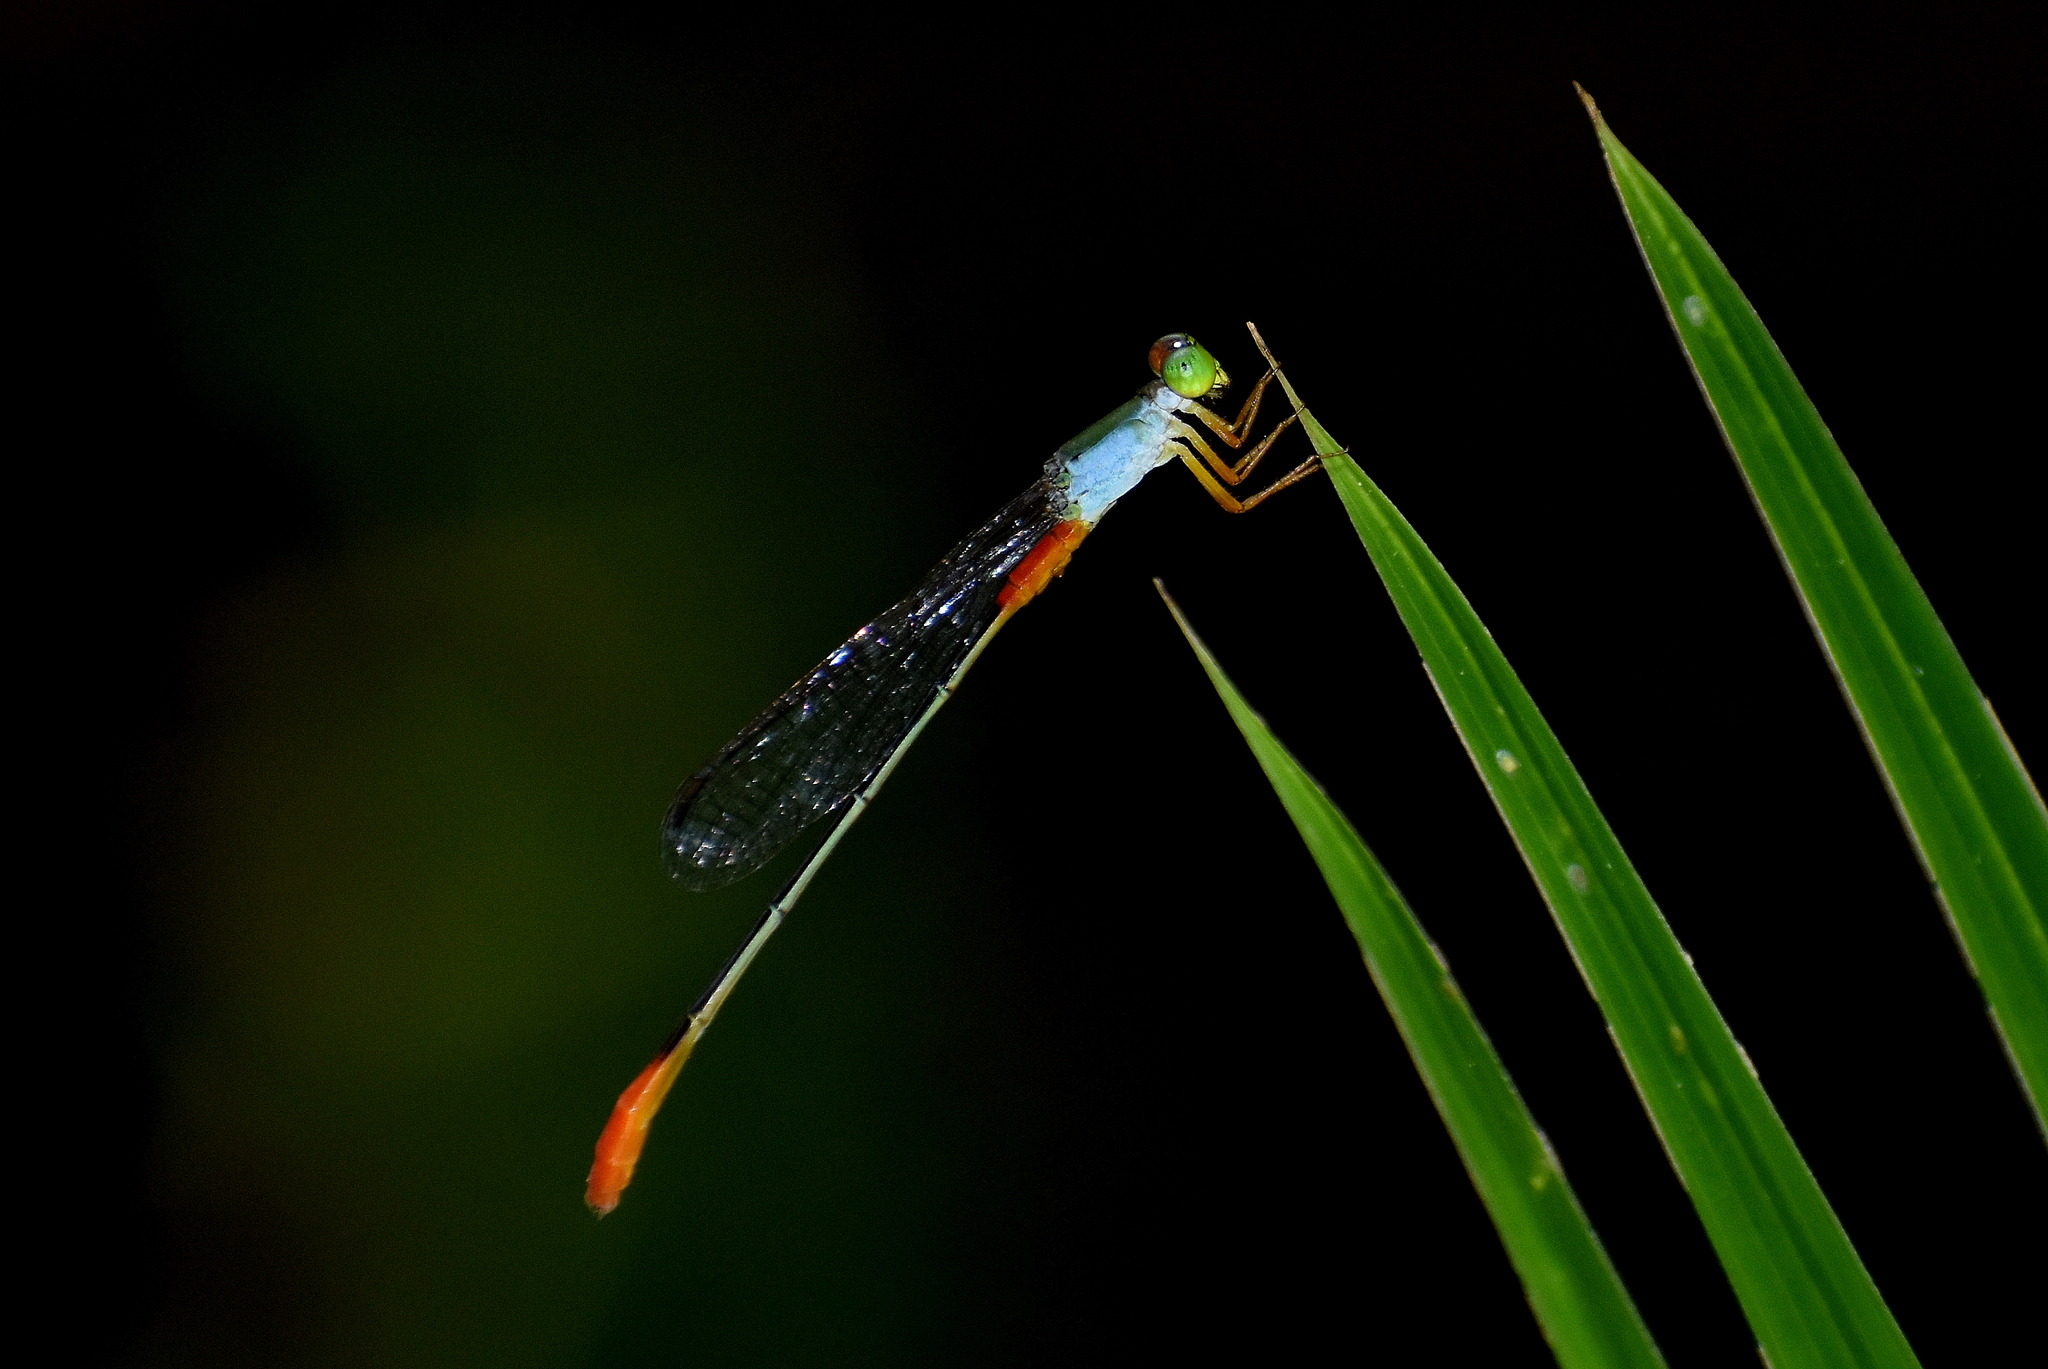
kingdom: Animalia
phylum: Arthropoda
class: Insecta
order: Odonata
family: Coenagrionidae
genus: Ceriagrion
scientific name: Ceriagrion cerinorubellum
